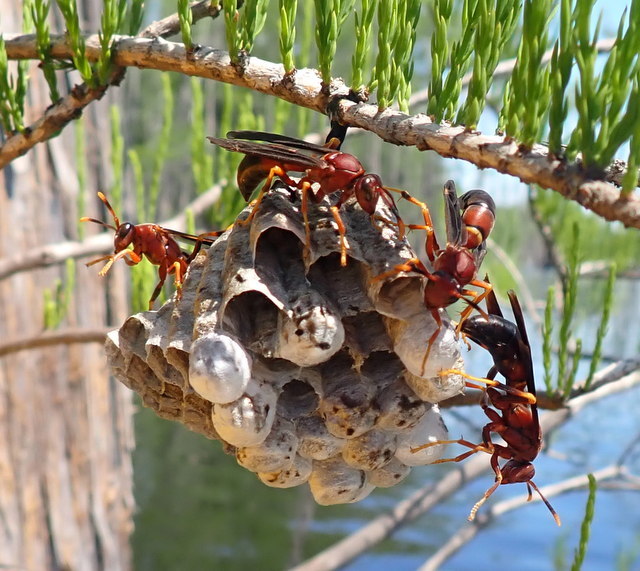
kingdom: Animalia
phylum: Arthropoda
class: Insecta
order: Hymenoptera
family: Eumenidae
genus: Polistes
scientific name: Polistes annularis
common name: Ringed paper wasp
